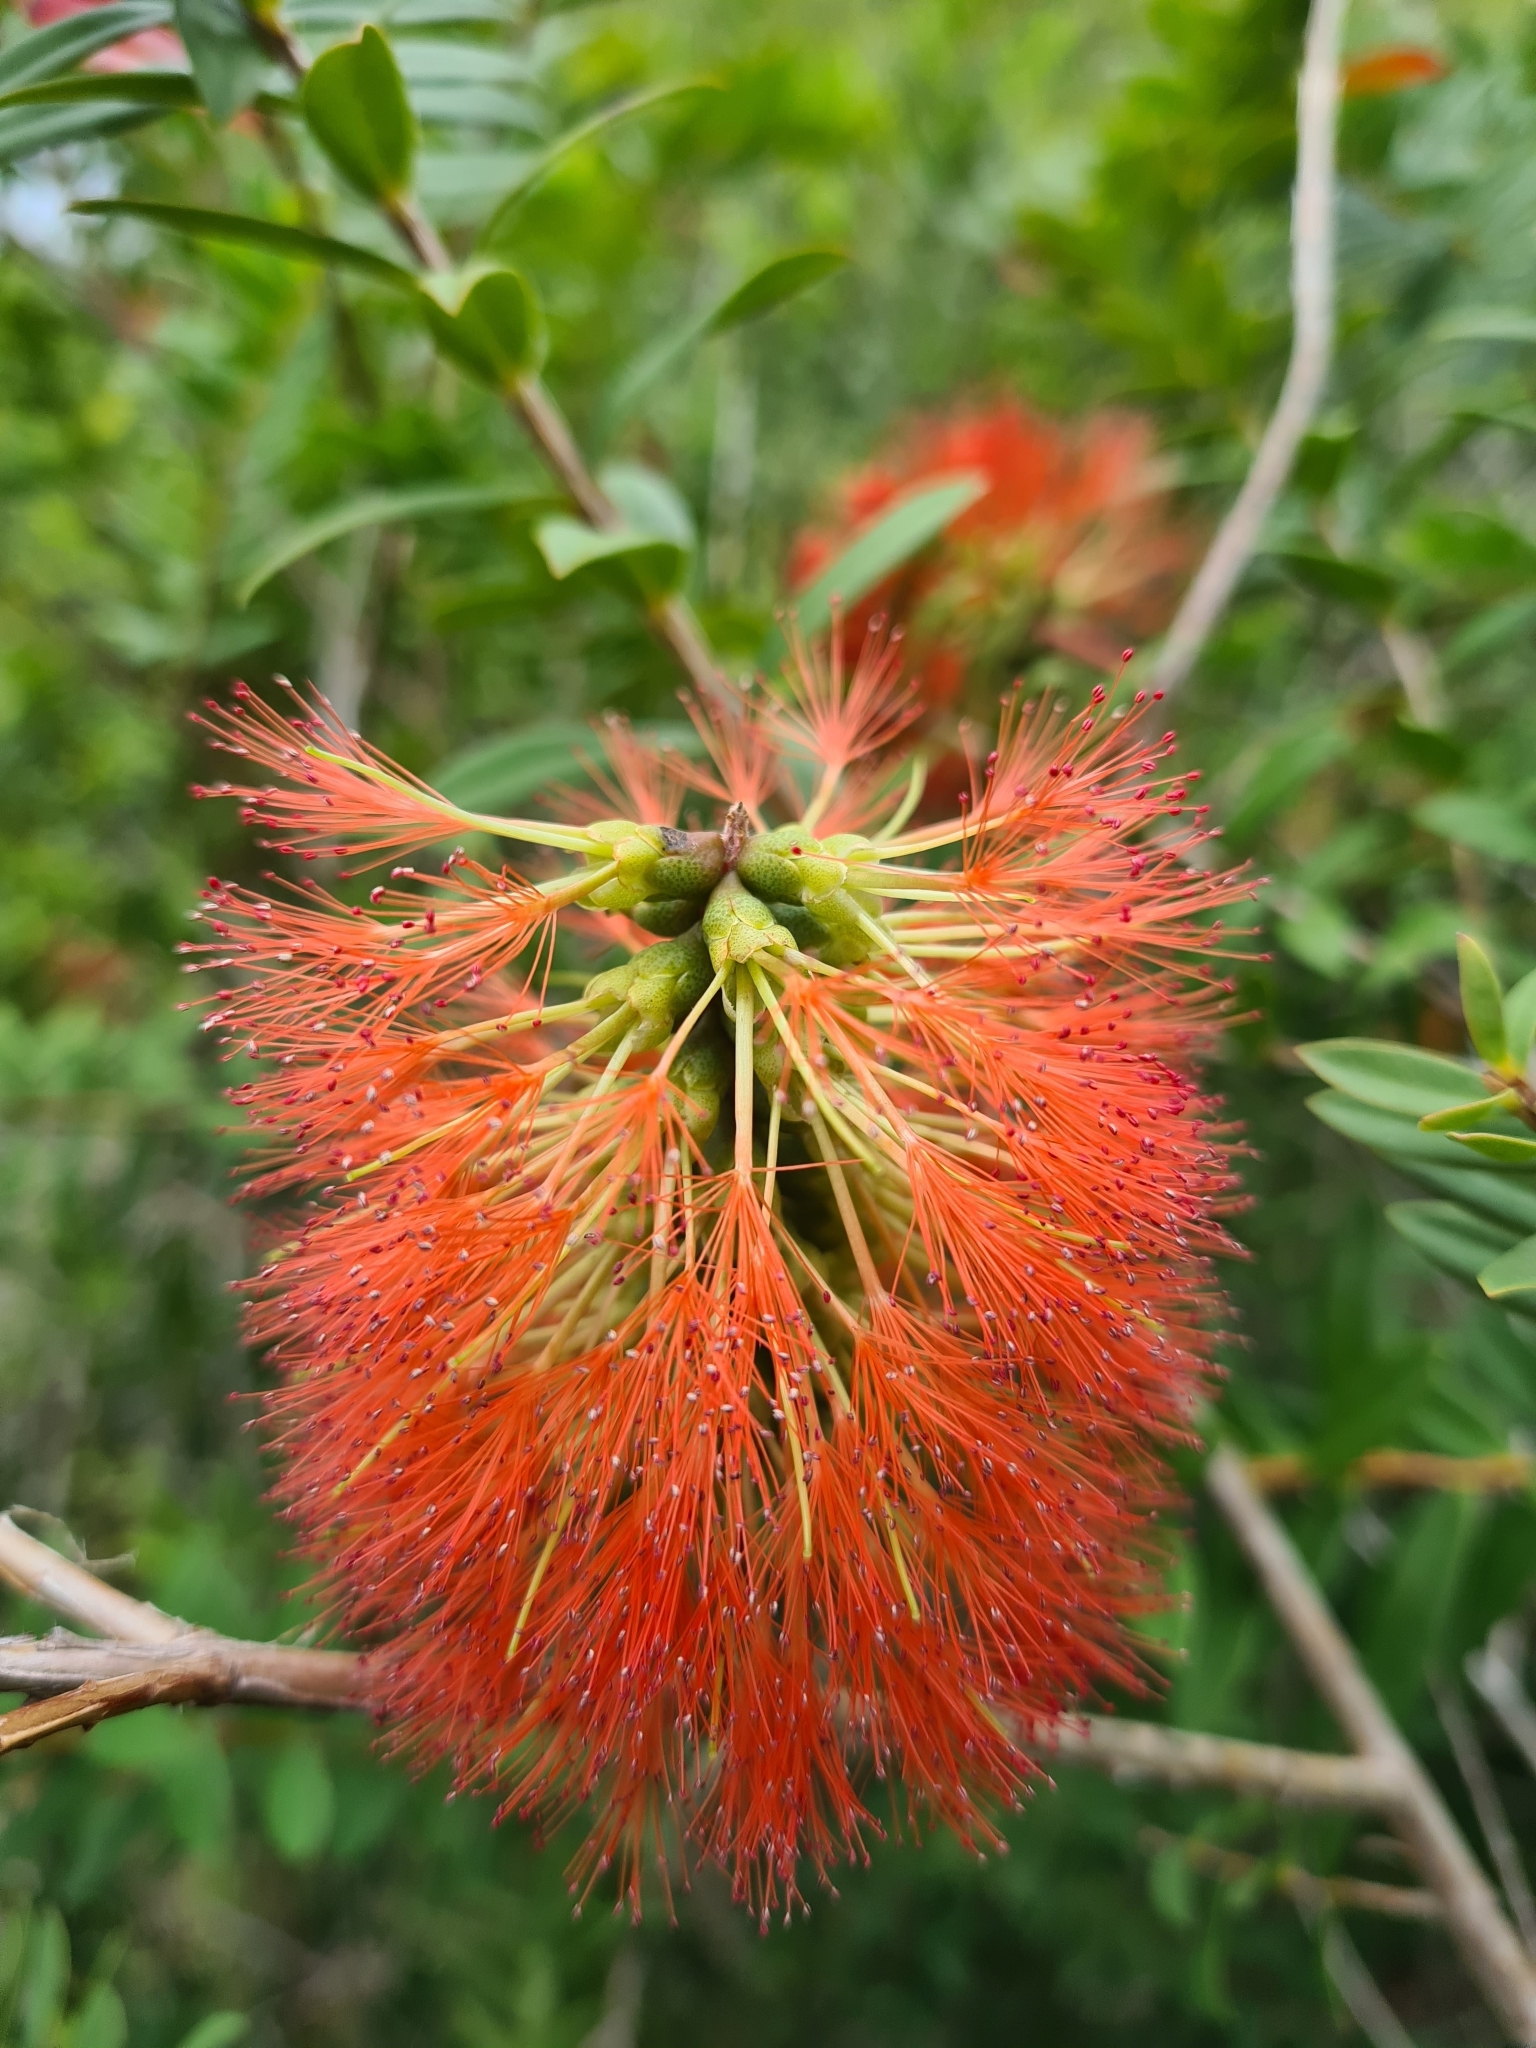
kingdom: Plantae
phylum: Tracheophyta
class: Magnoliopsida
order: Myrtales
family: Myrtaceae
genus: Melaleuca
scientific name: Melaleuca hypericifolia
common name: Red honey myrtle
